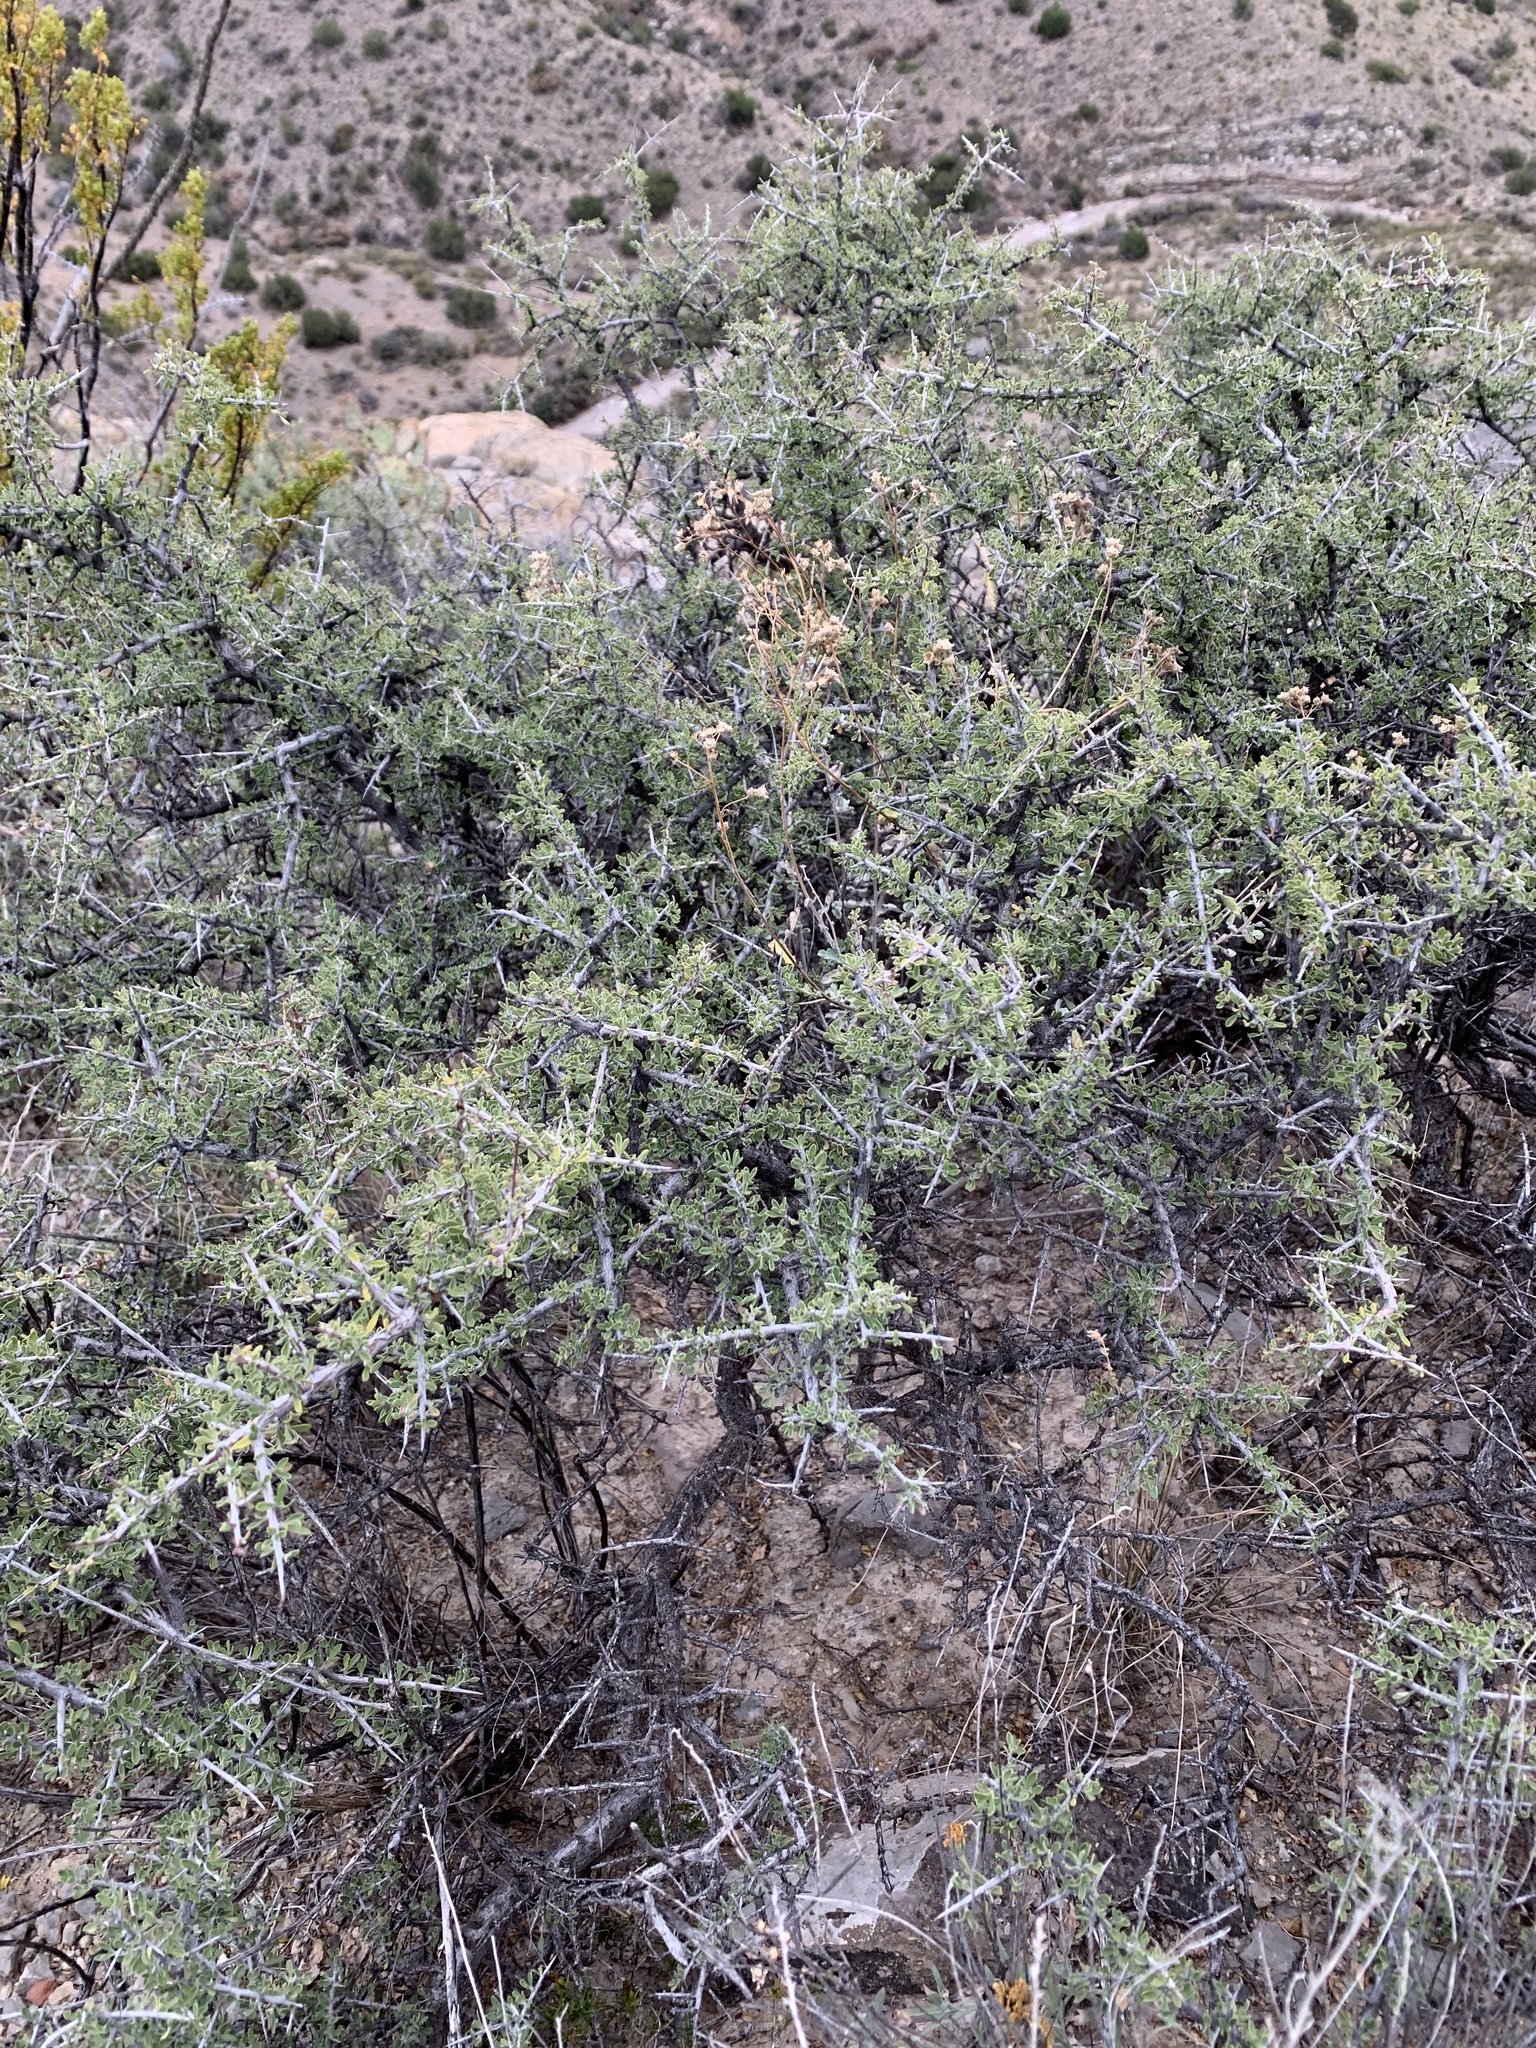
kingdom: Plantae
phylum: Tracheophyta
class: Magnoliopsida
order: Rosales
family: Rhamnaceae
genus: Condalia
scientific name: Condalia warnockii
